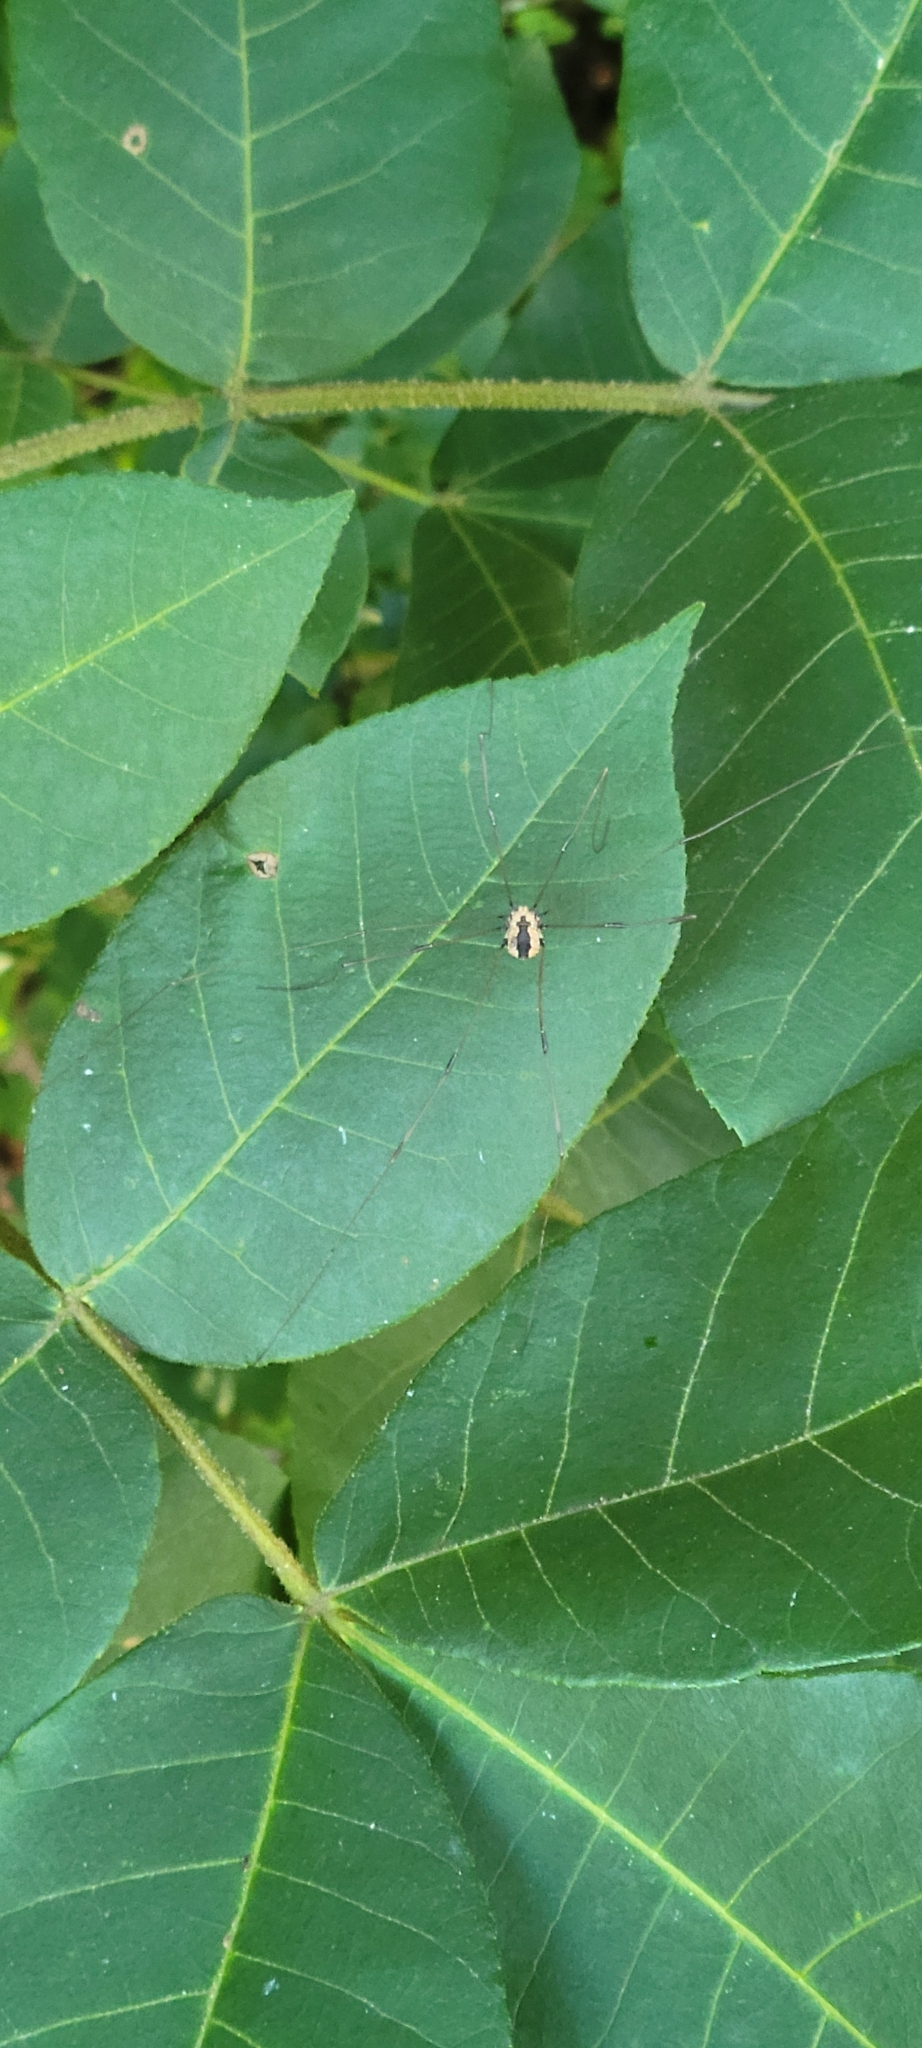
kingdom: Animalia
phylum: Arthropoda
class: Arachnida
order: Opiliones
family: Sclerosomatidae
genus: Leiobunum
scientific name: Leiobunum vittatum
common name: Eastern harvestman
